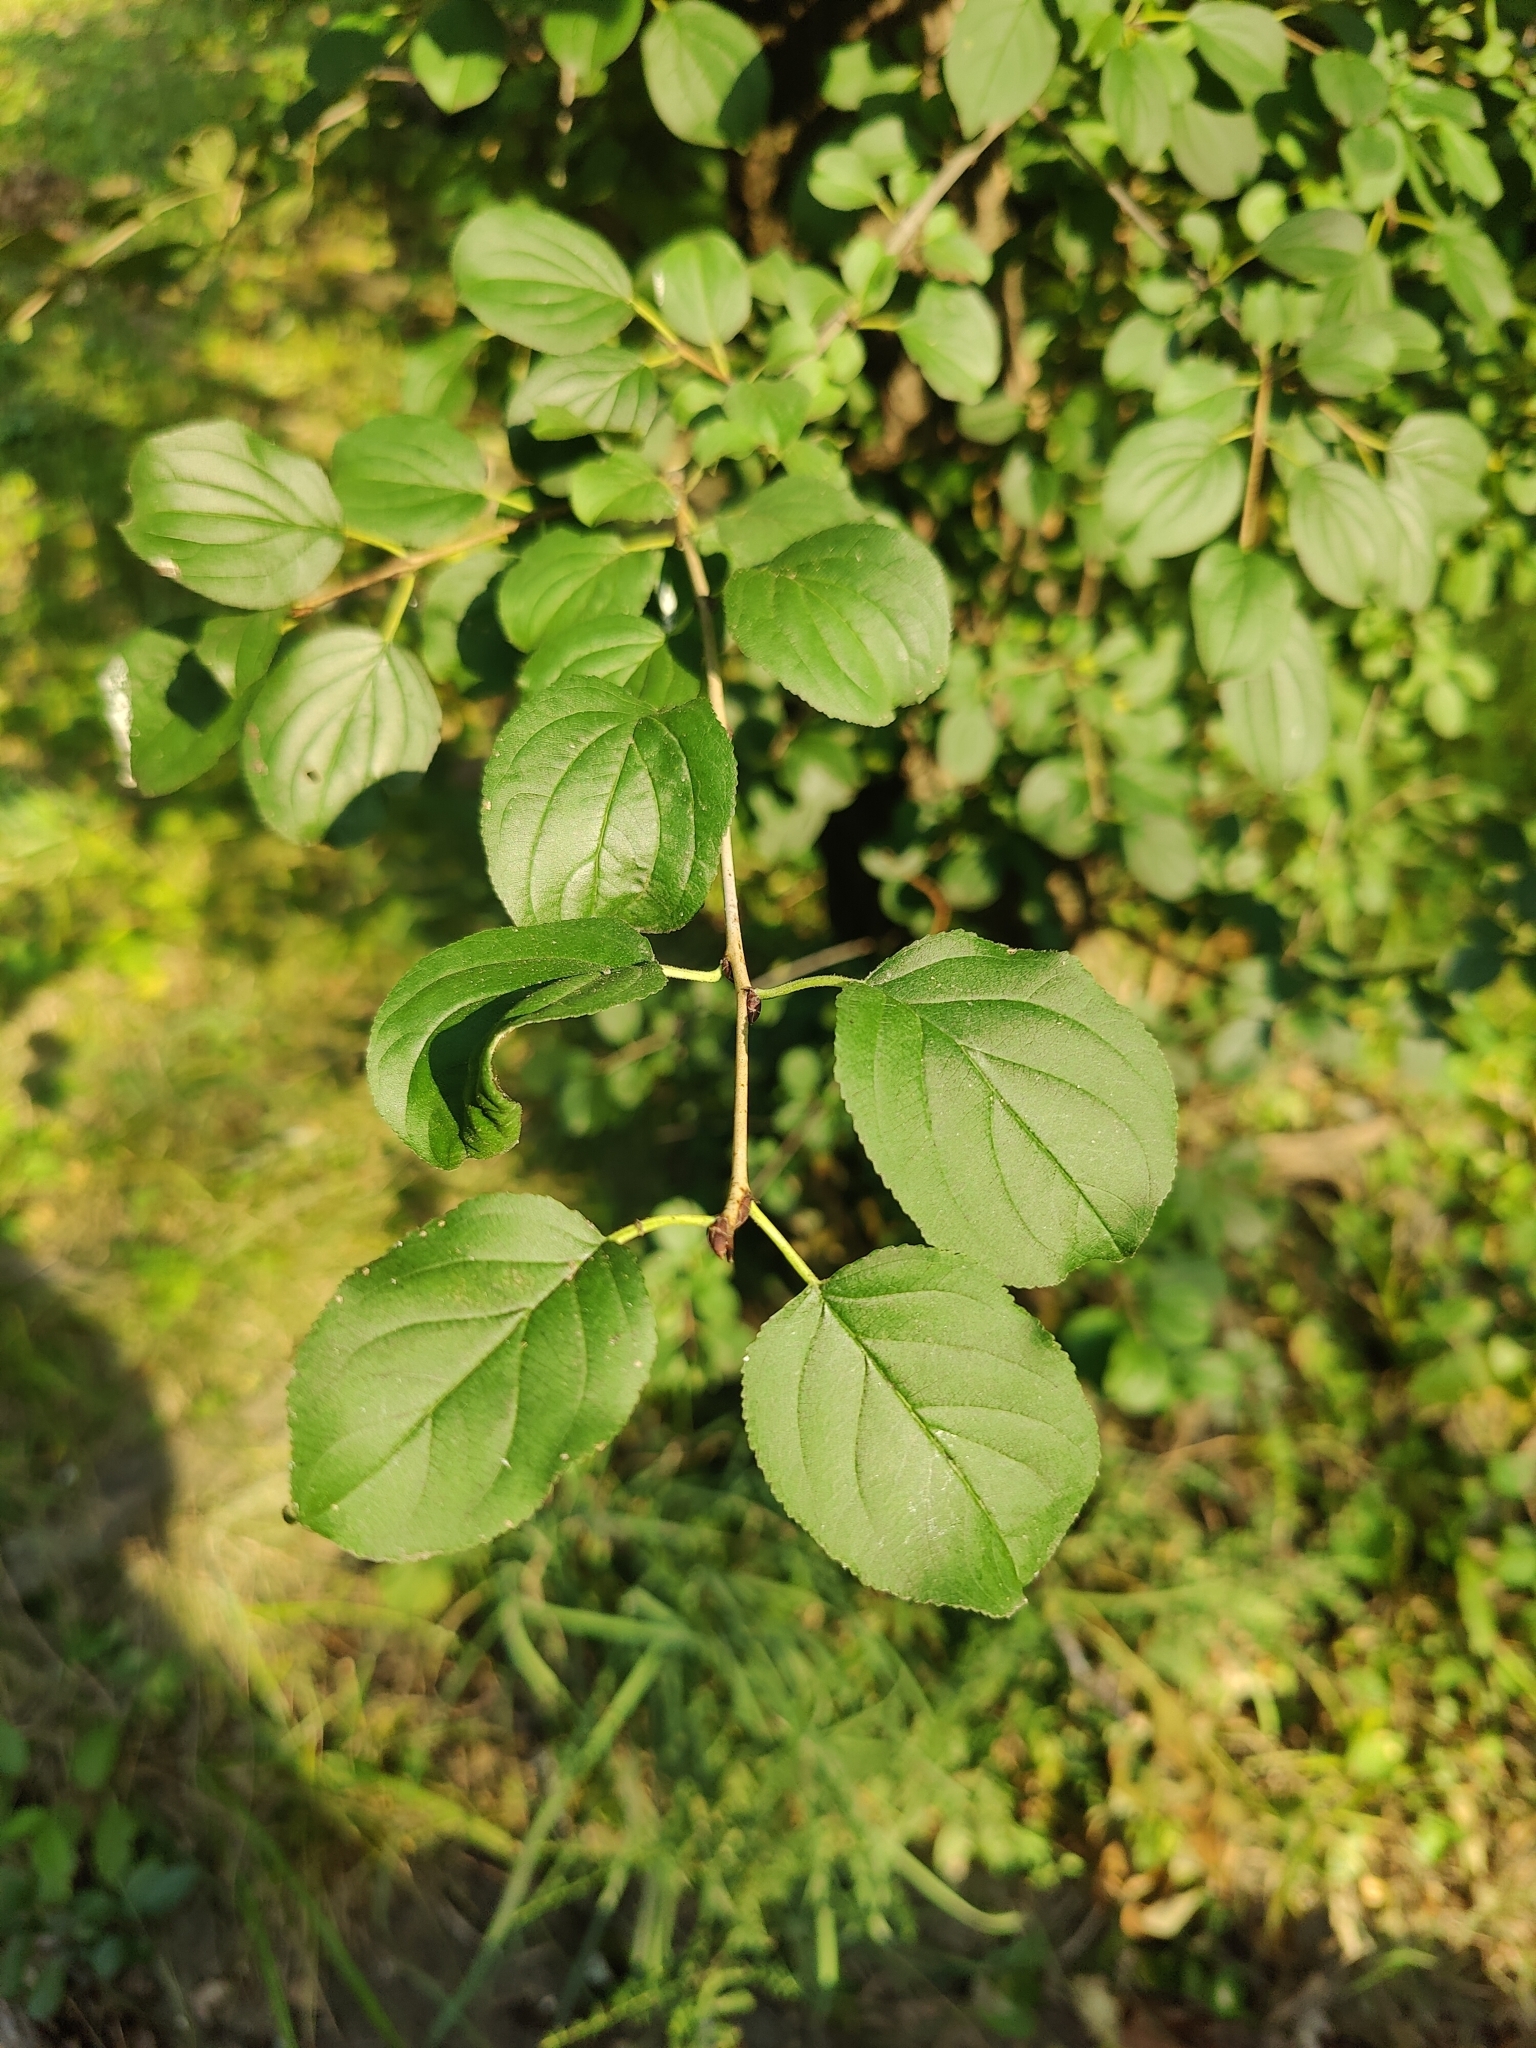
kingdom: Plantae
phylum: Tracheophyta
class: Magnoliopsida
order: Rosales
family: Rhamnaceae
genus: Rhamnus
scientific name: Rhamnus cathartica
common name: Common buckthorn
